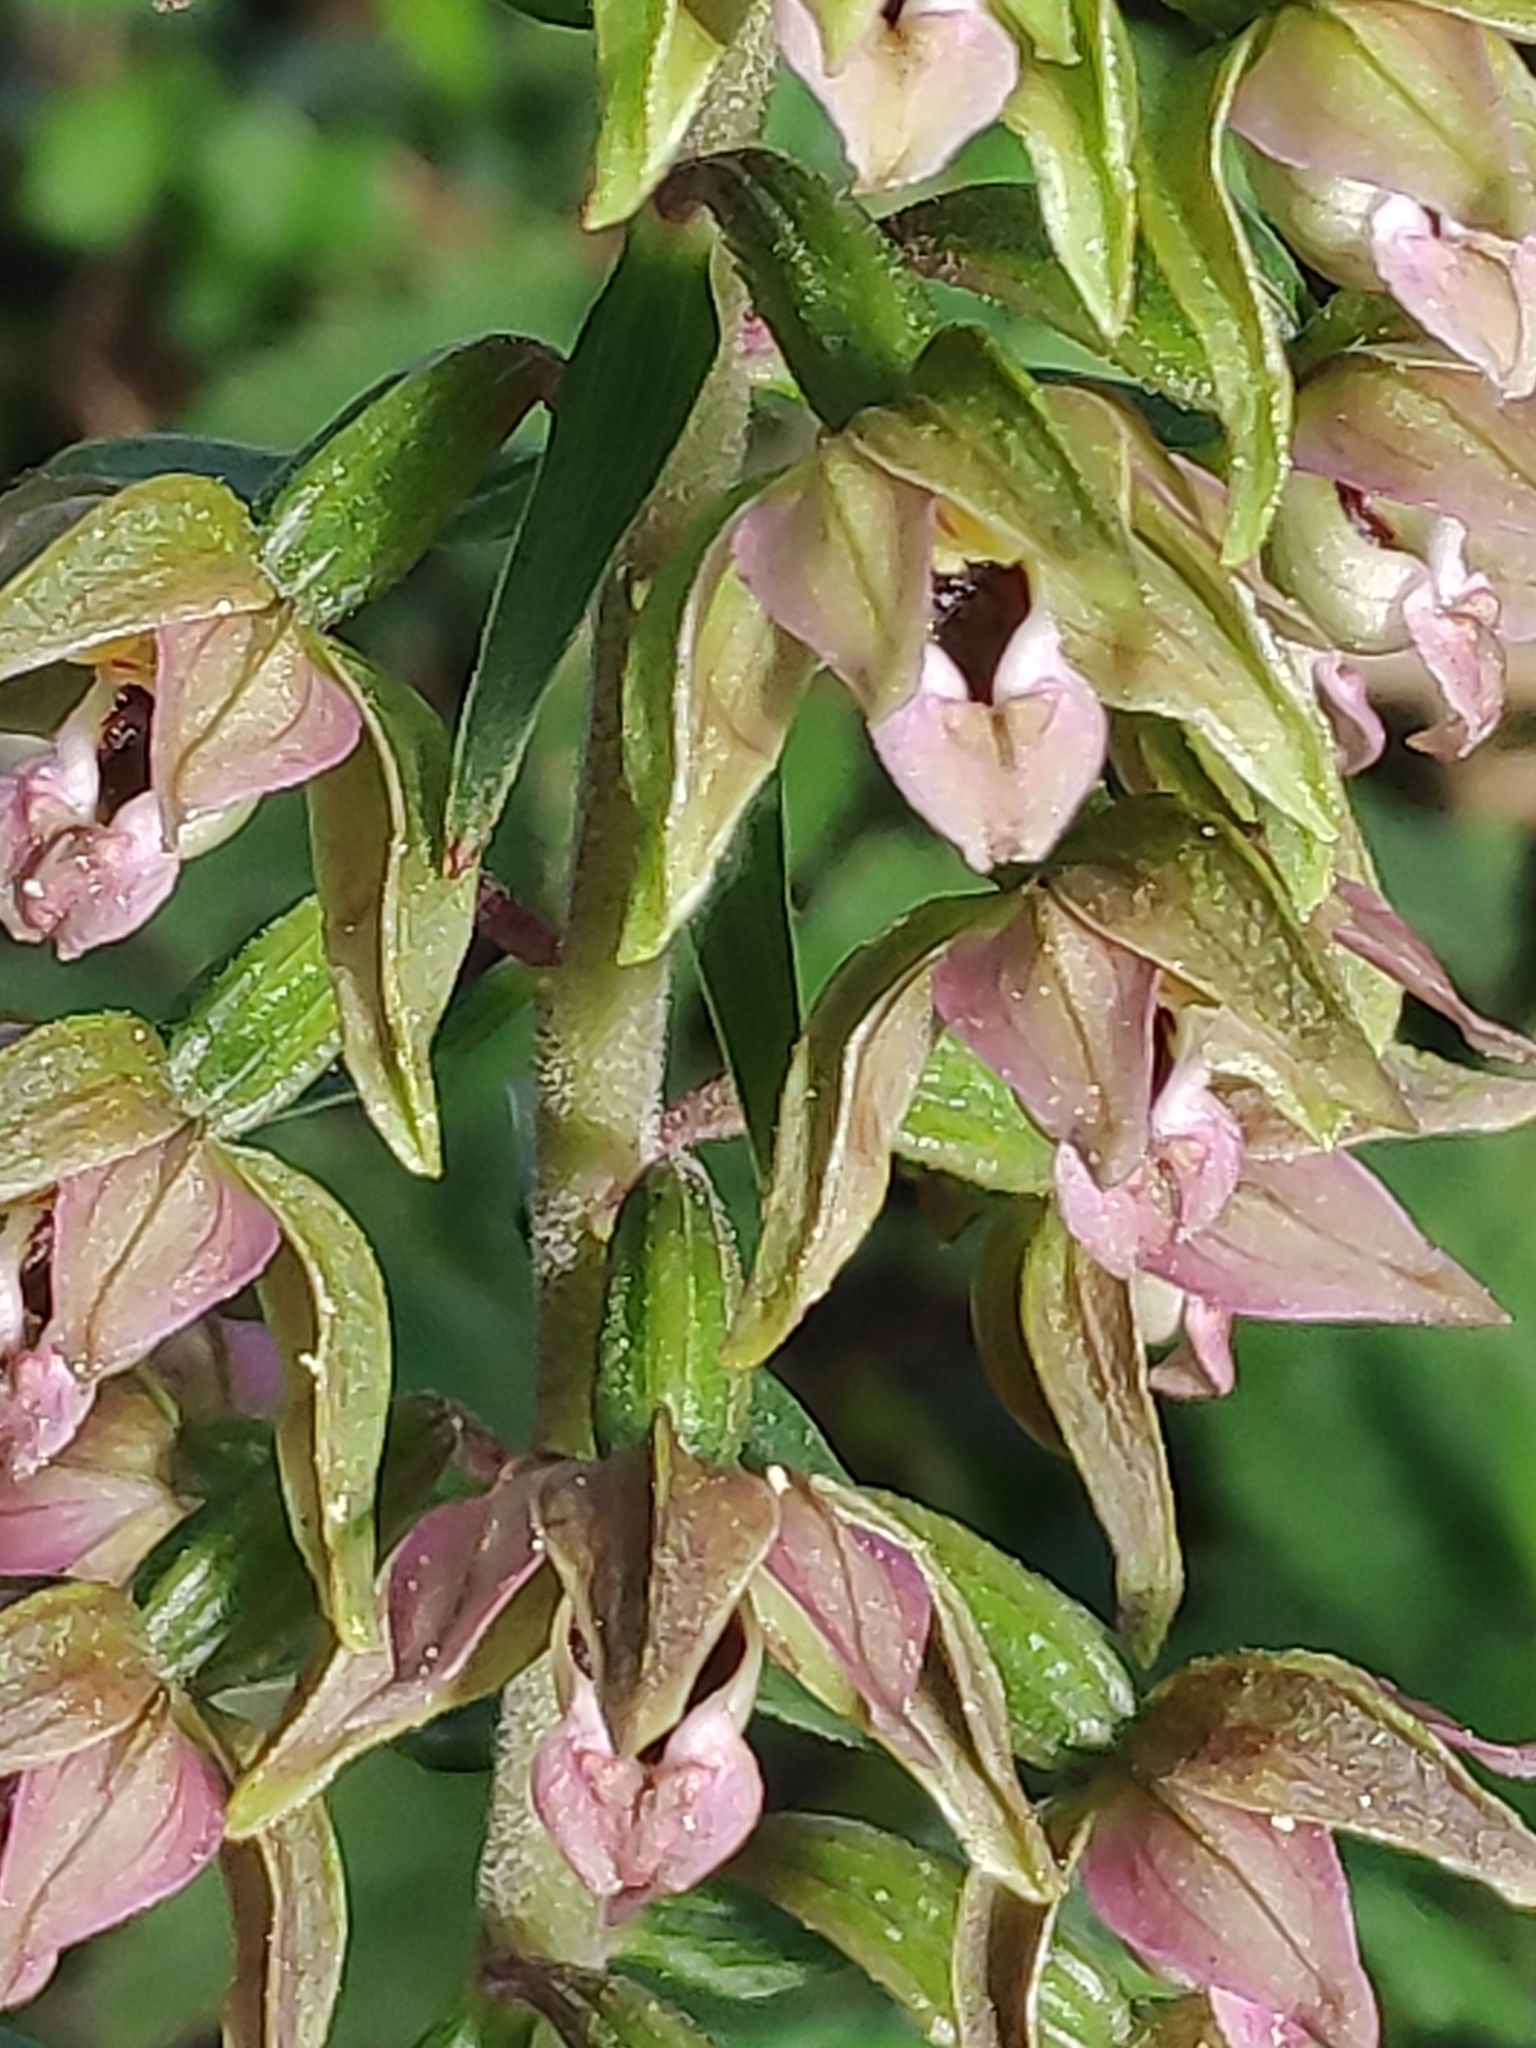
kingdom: Plantae
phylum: Tracheophyta
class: Liliopsida
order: Asparagales
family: Orchidaceae
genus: Epipactis
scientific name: Epipactis helleborine
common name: Broad-leaved helleborine
